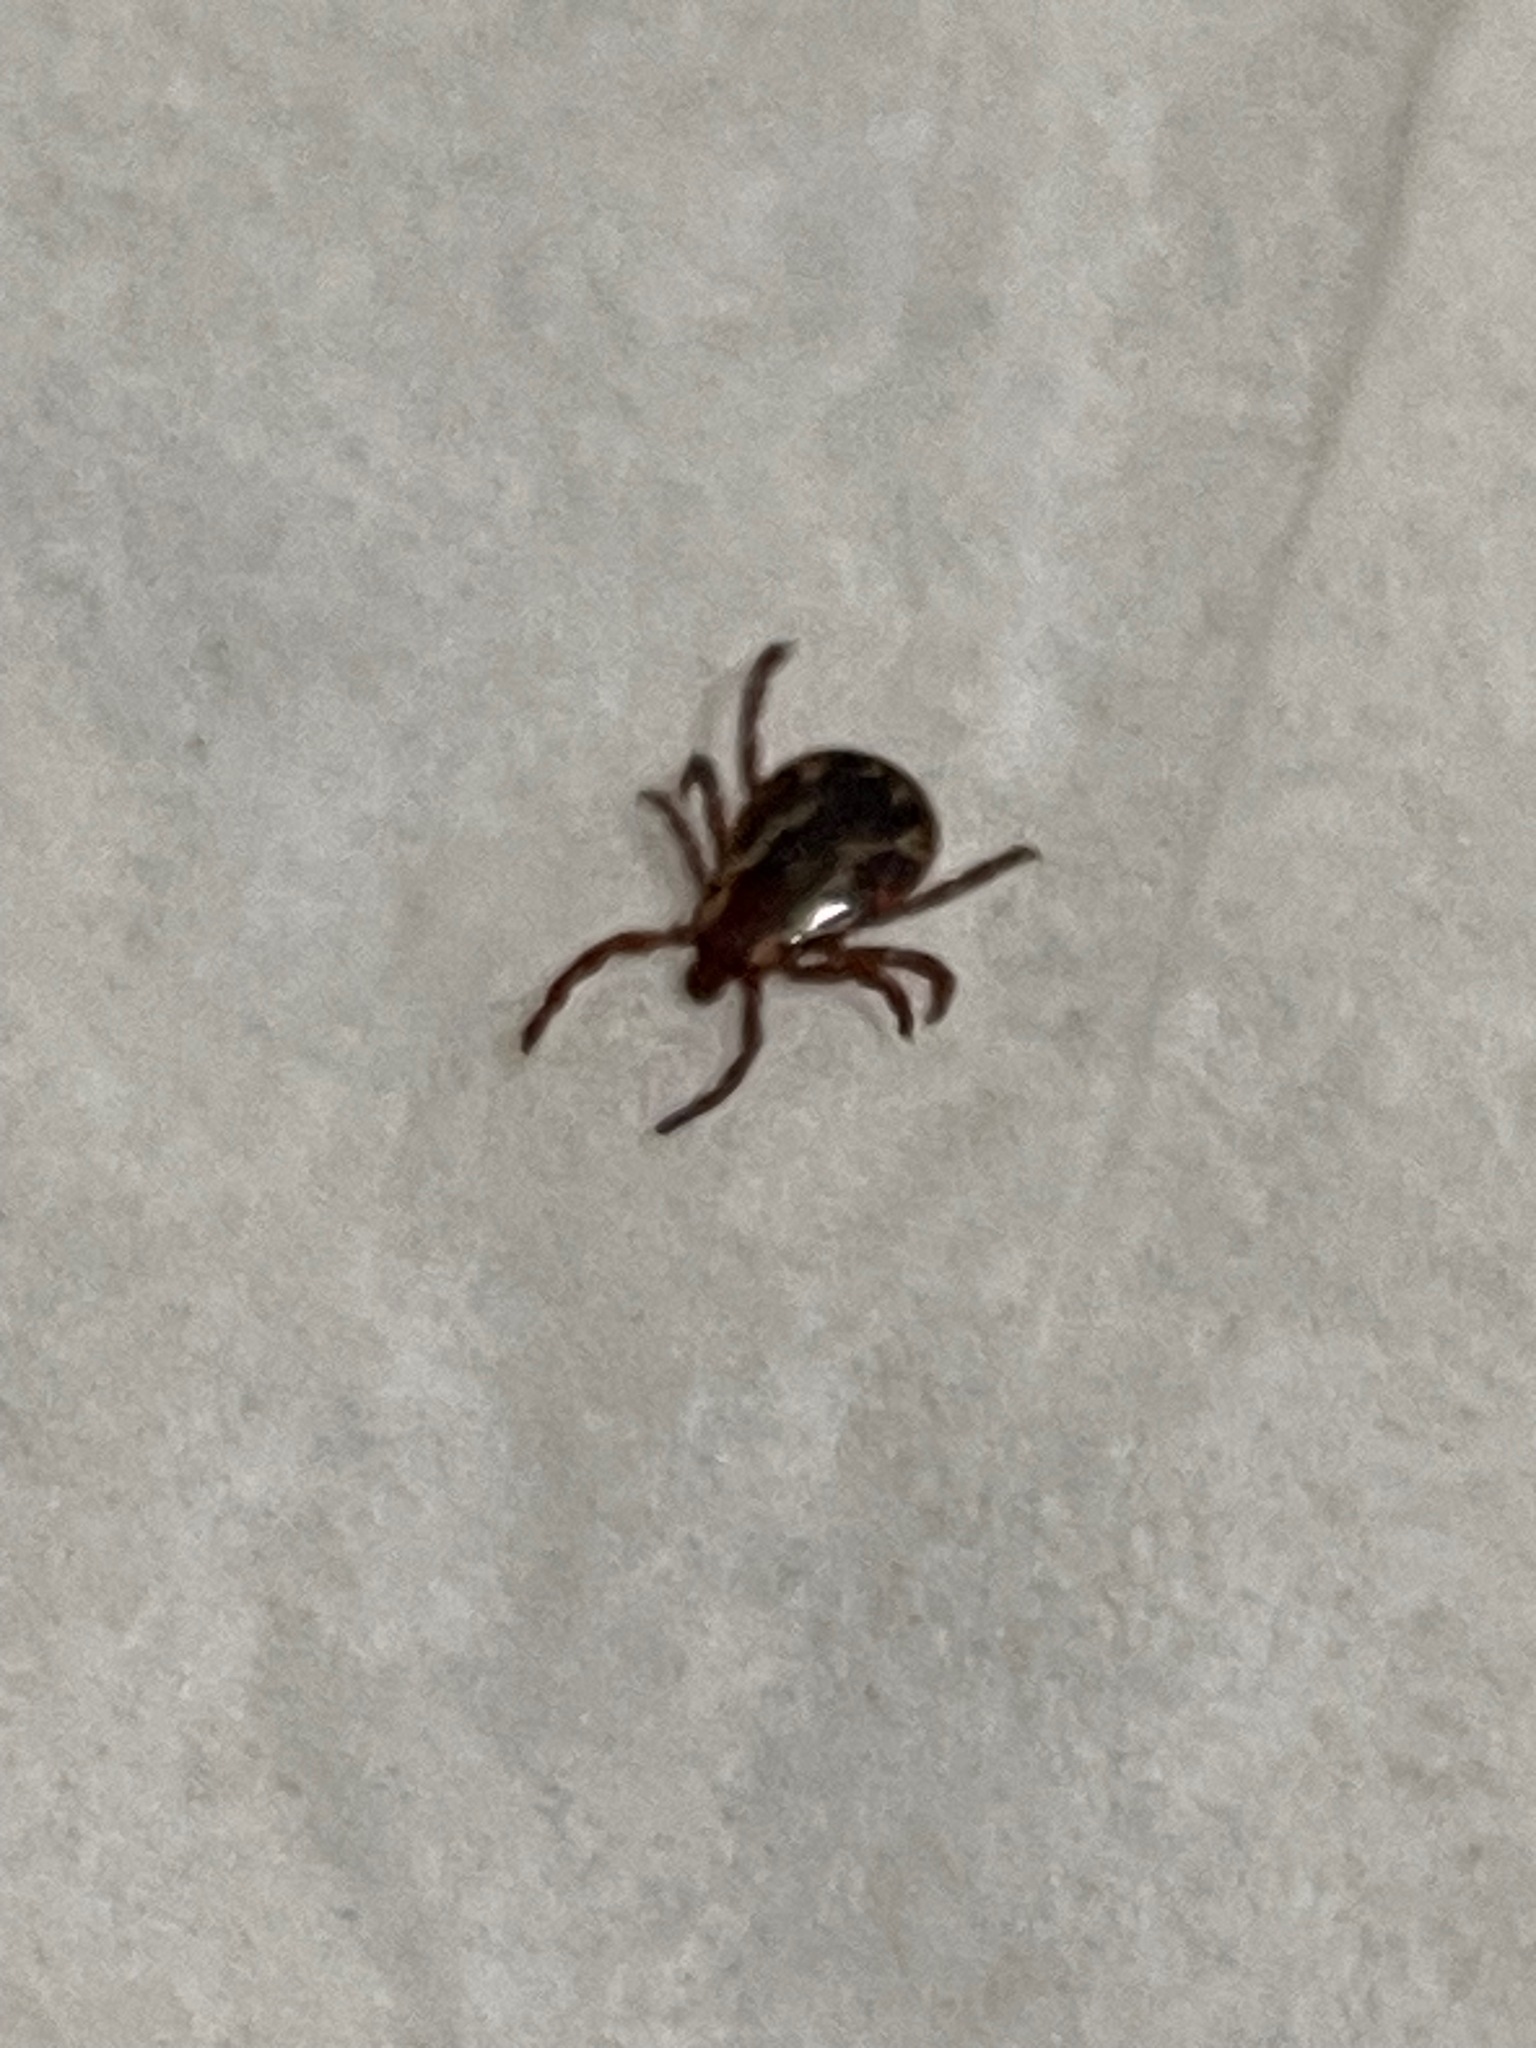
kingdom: Animalia
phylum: Arthropoda
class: Arachnida
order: Ixodida
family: Ixodidae
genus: Dermacentor
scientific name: Dermacentor variabilis
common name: American dog tick
